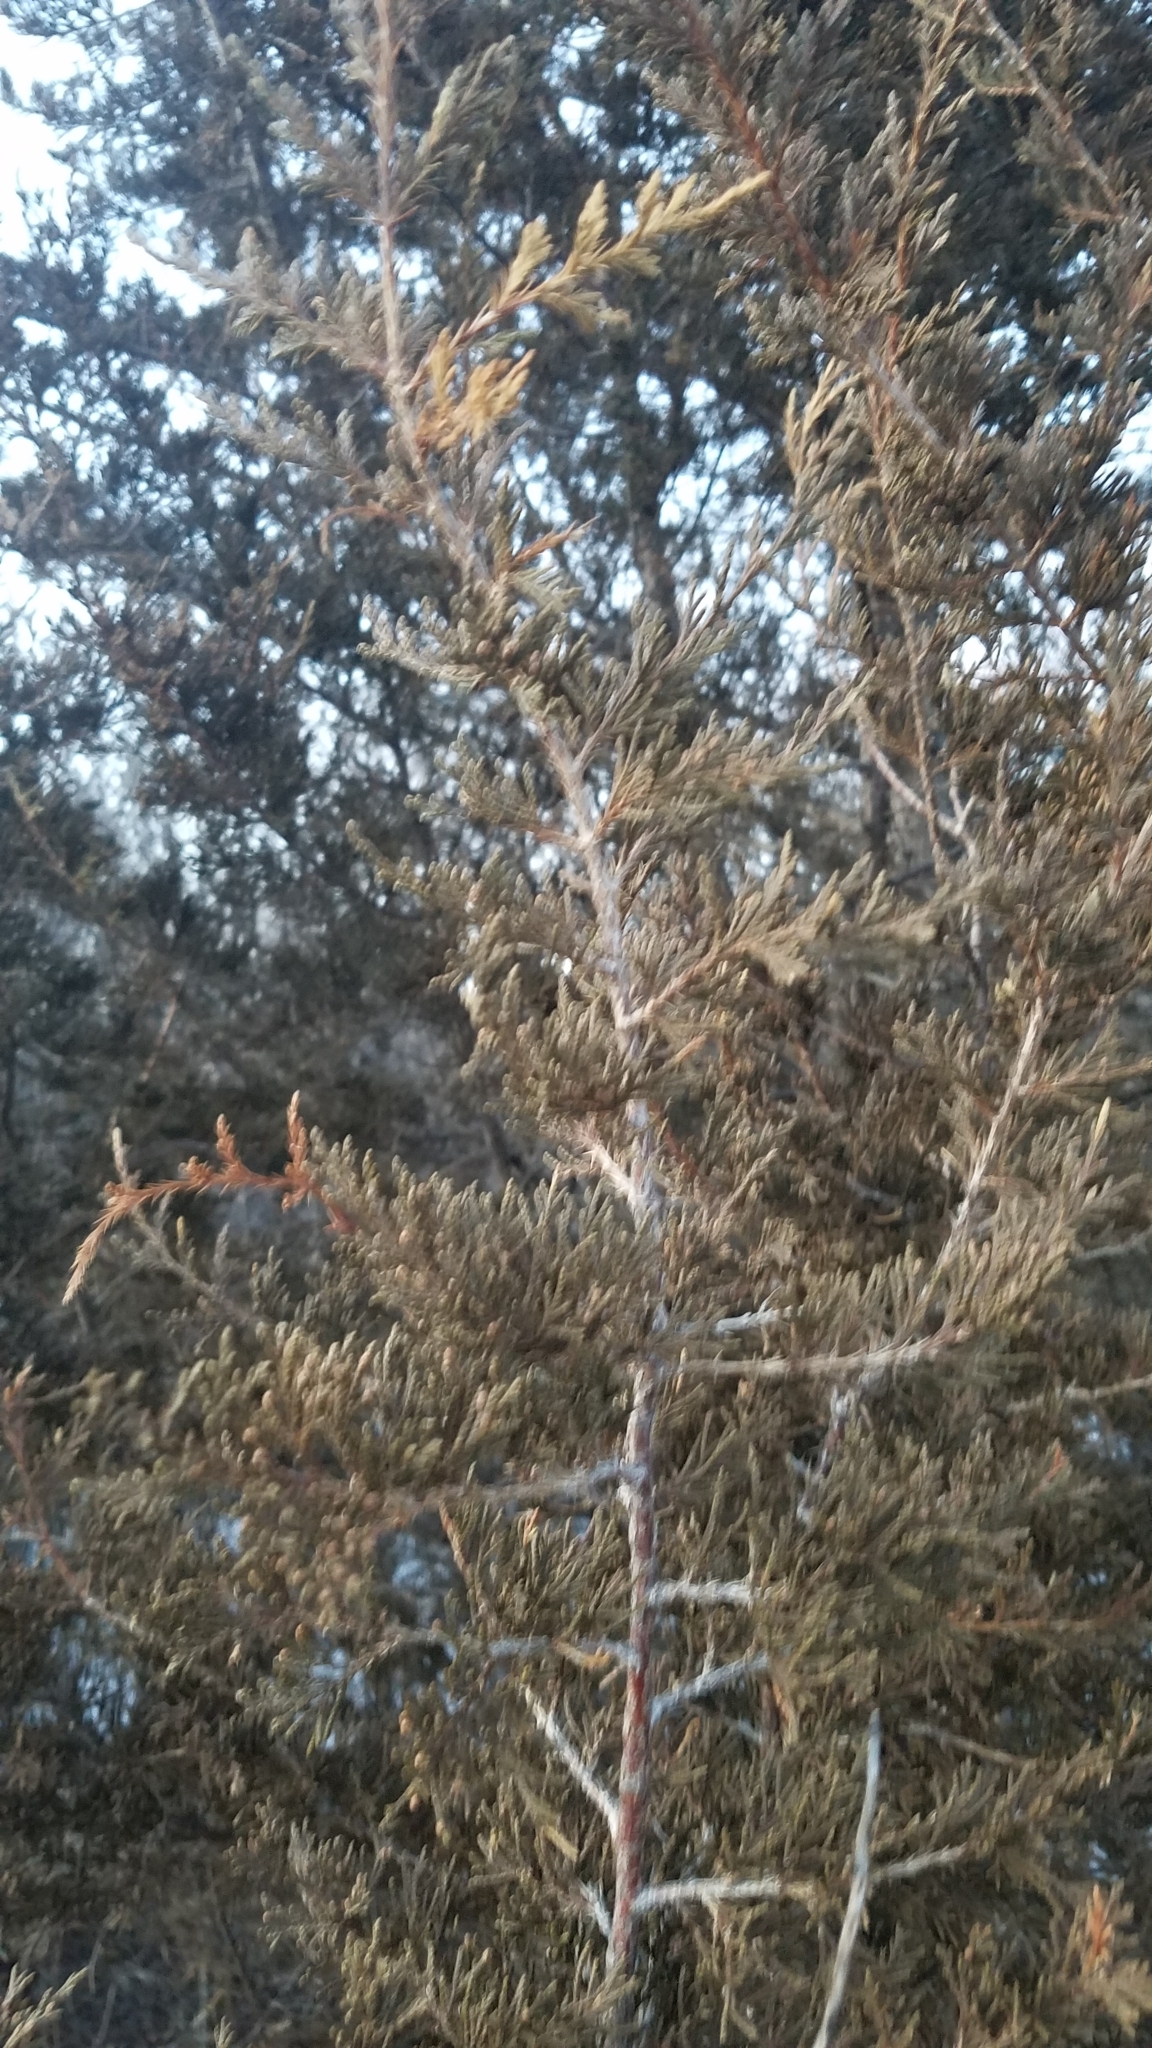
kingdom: Plantae
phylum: Tracheophyta
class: Pinopsida
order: Pinales
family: Cupressaceae
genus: Juniperus
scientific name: Juniperus virginiana
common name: Red juniper
